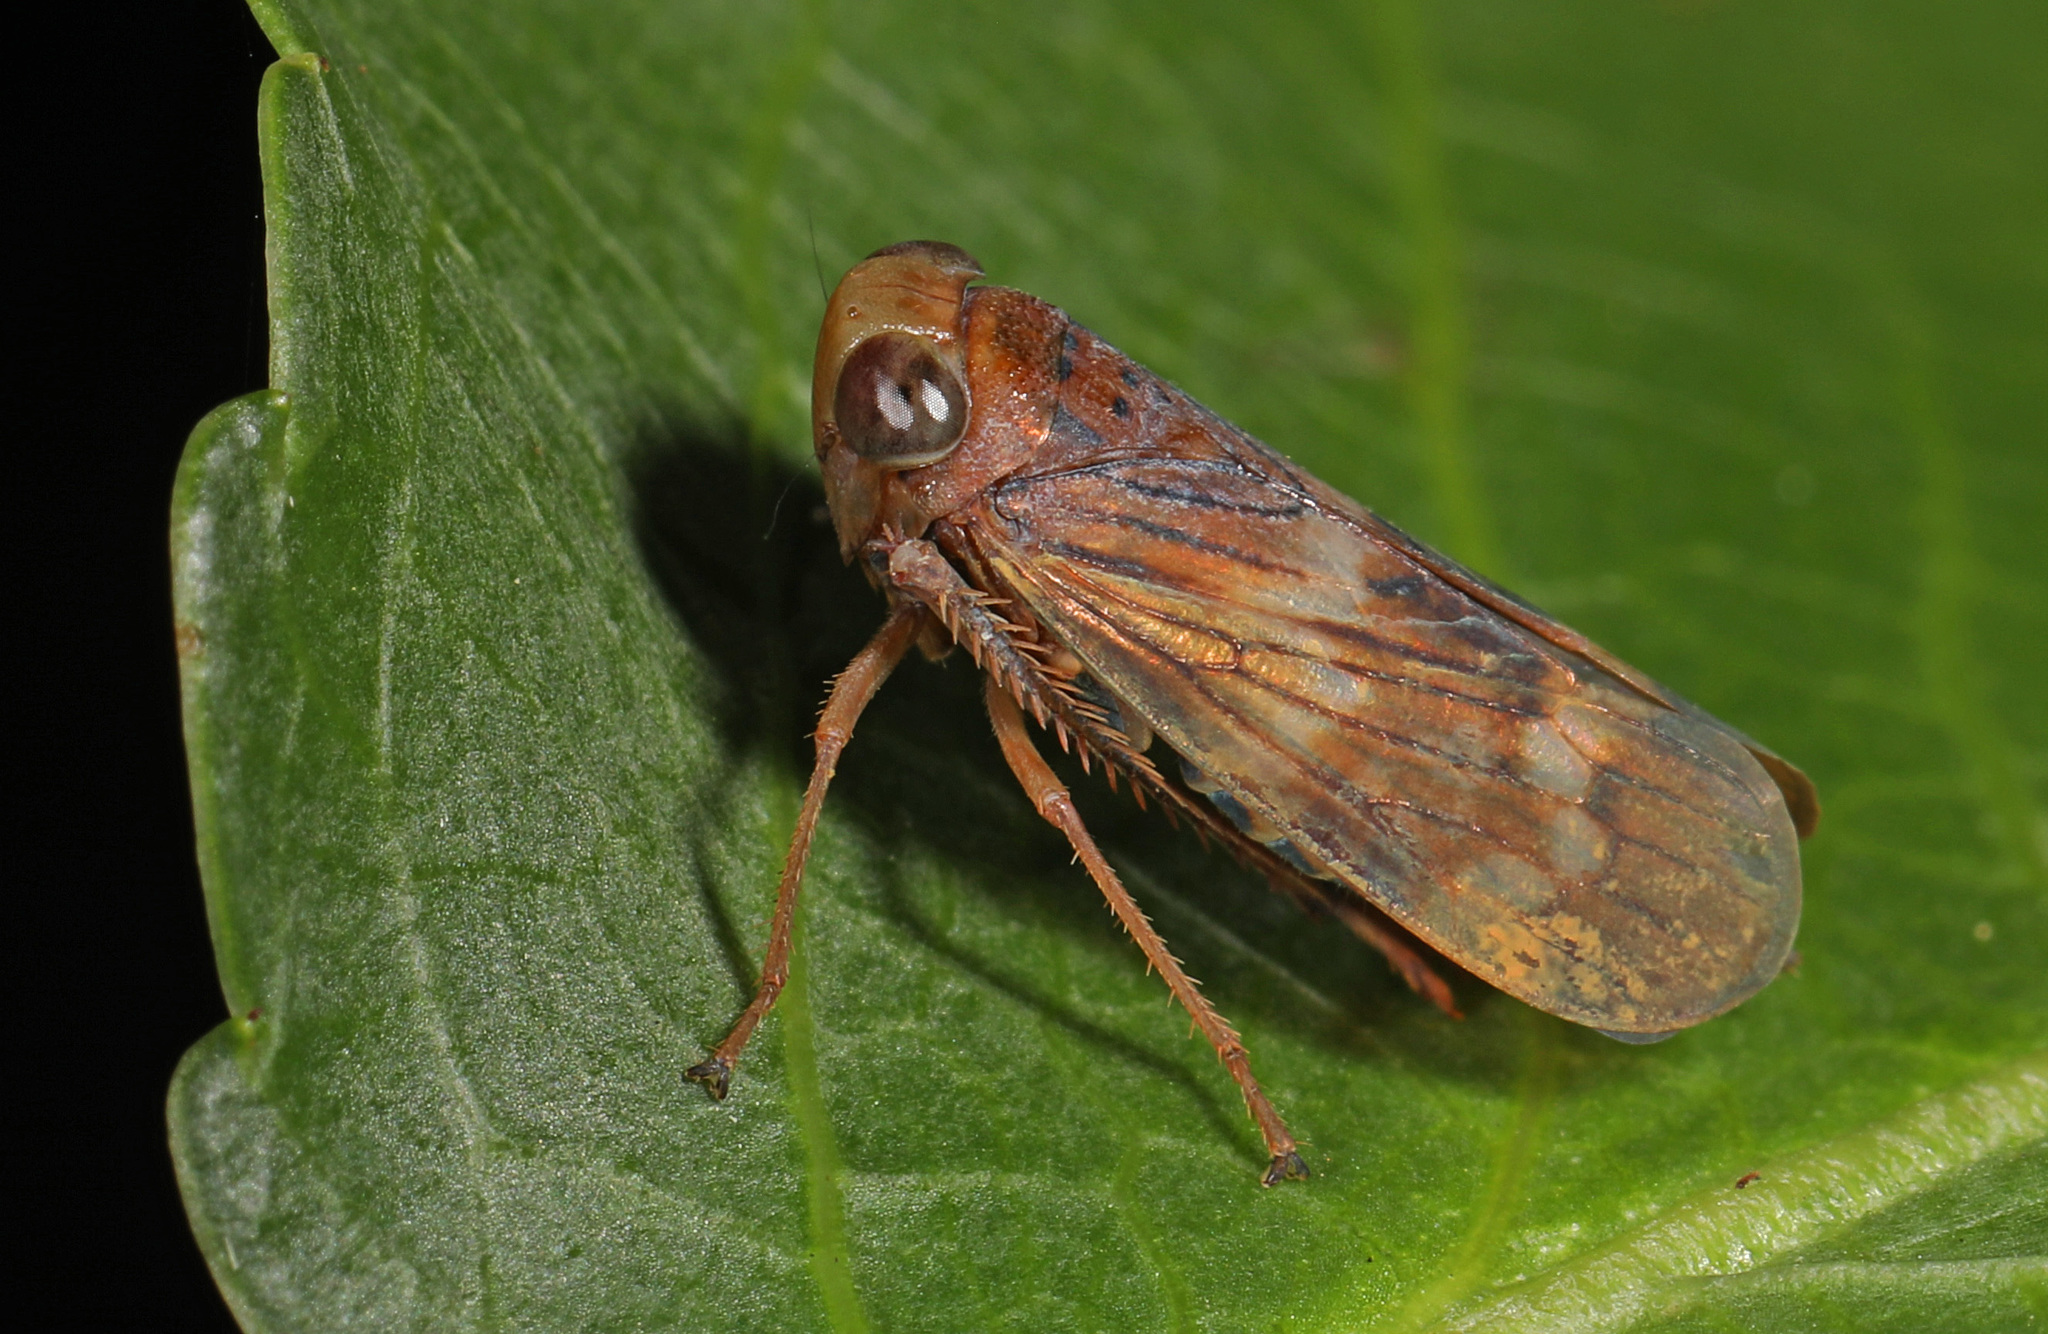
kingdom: Animalia
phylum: Arthropoda
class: Insecta
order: Hemiptera
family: Cicadellidae
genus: Jikradia
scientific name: Jikradia olitoria
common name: Coppery leafhopper
